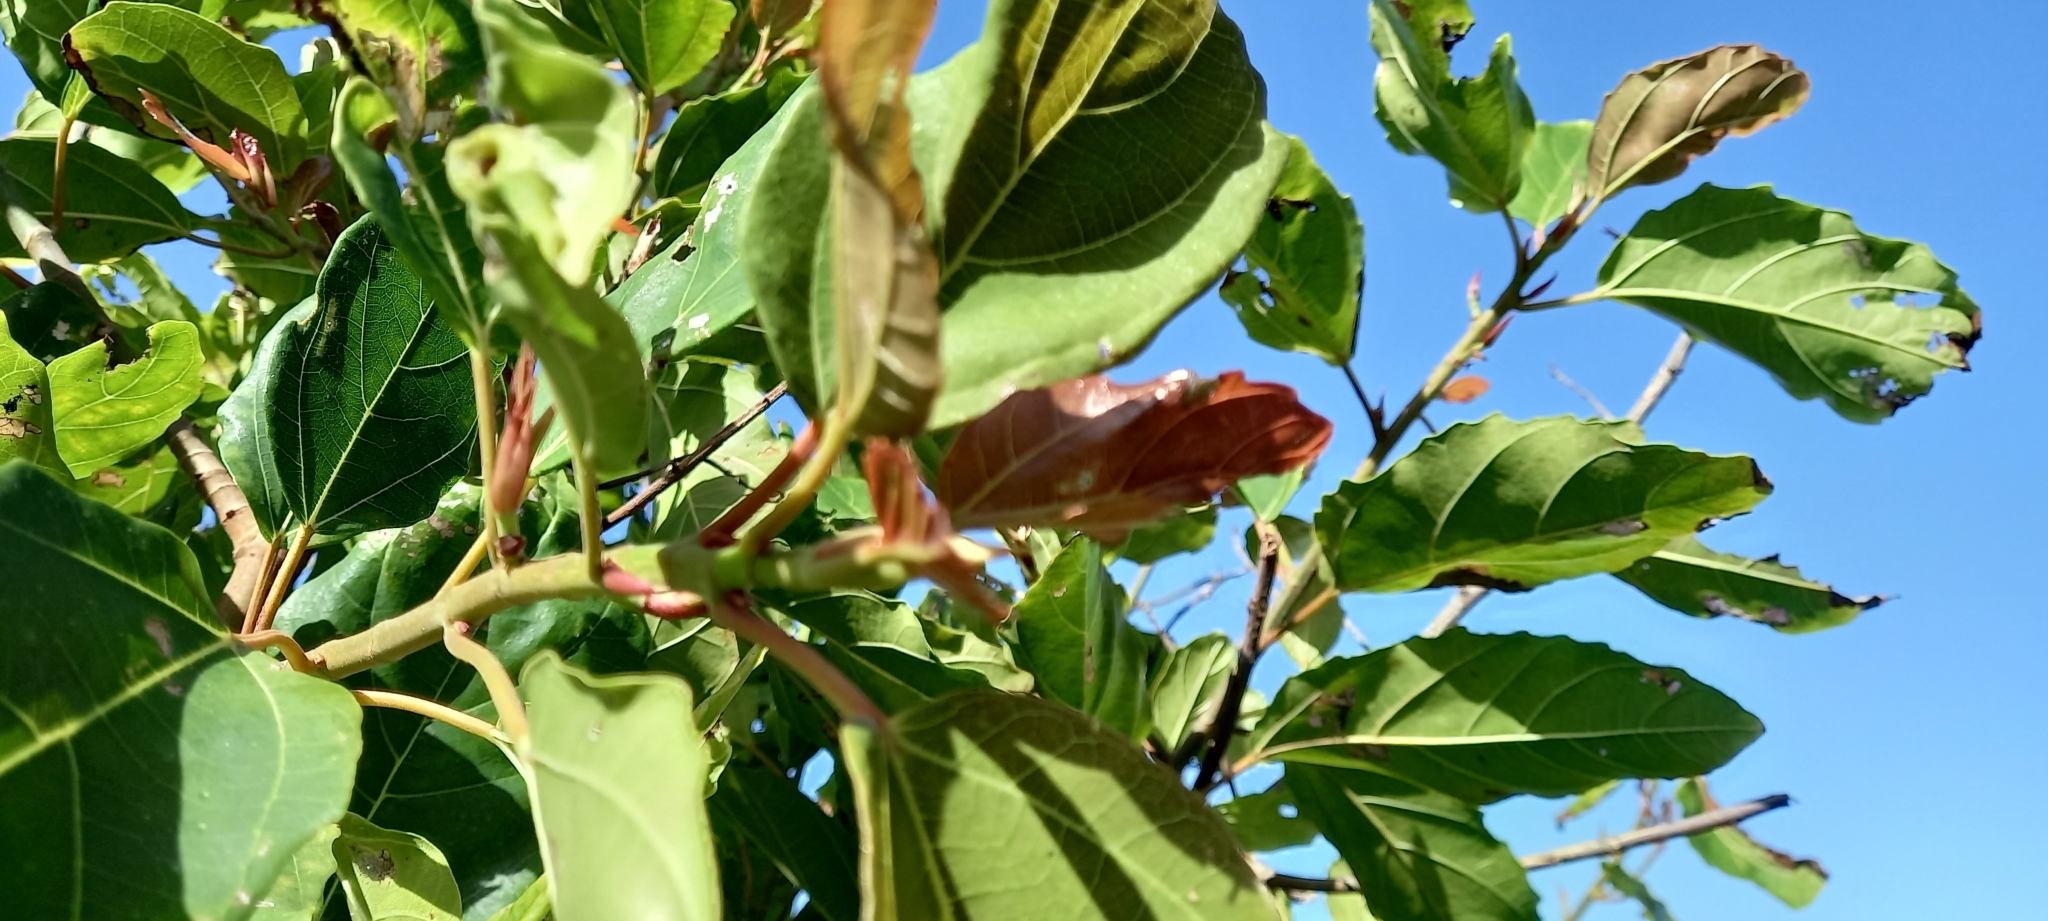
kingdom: Plantae
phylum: Tracheophyta
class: Magnoliopsida
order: Rosales
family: Moraceae
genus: Ficus
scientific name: Ficus sur
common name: Cape fig
